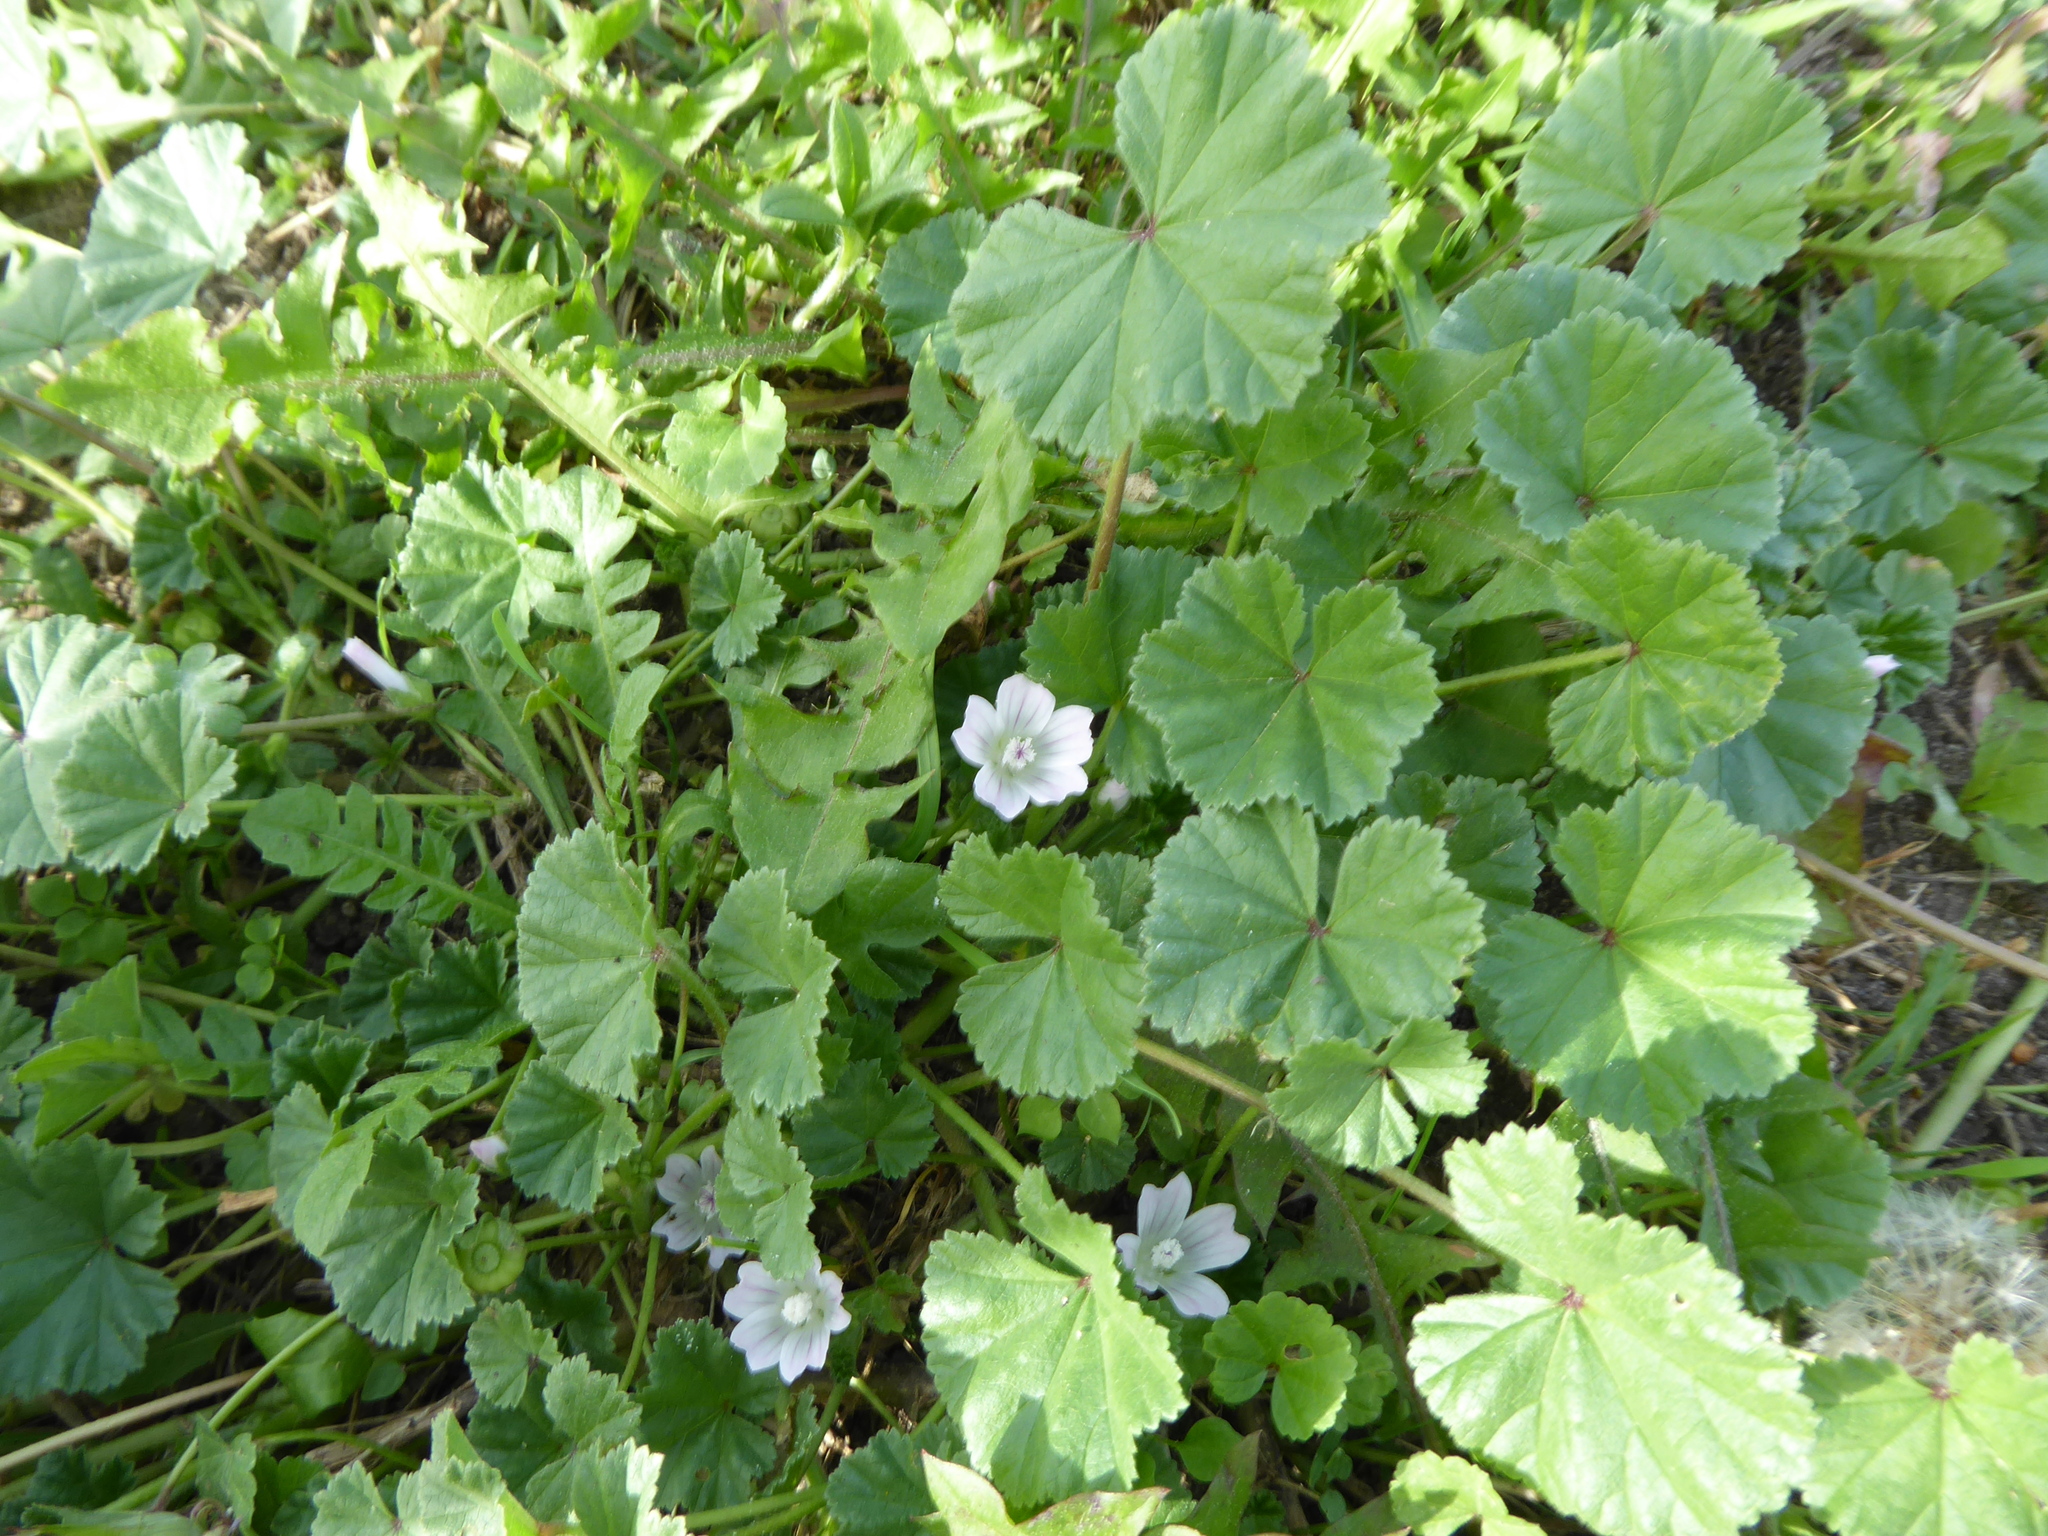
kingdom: Plantae
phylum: Tracheophyta
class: Magnoliopsida
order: Malvales
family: Malvaceae
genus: Malva
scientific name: Malva neglecta
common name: Common mallow
